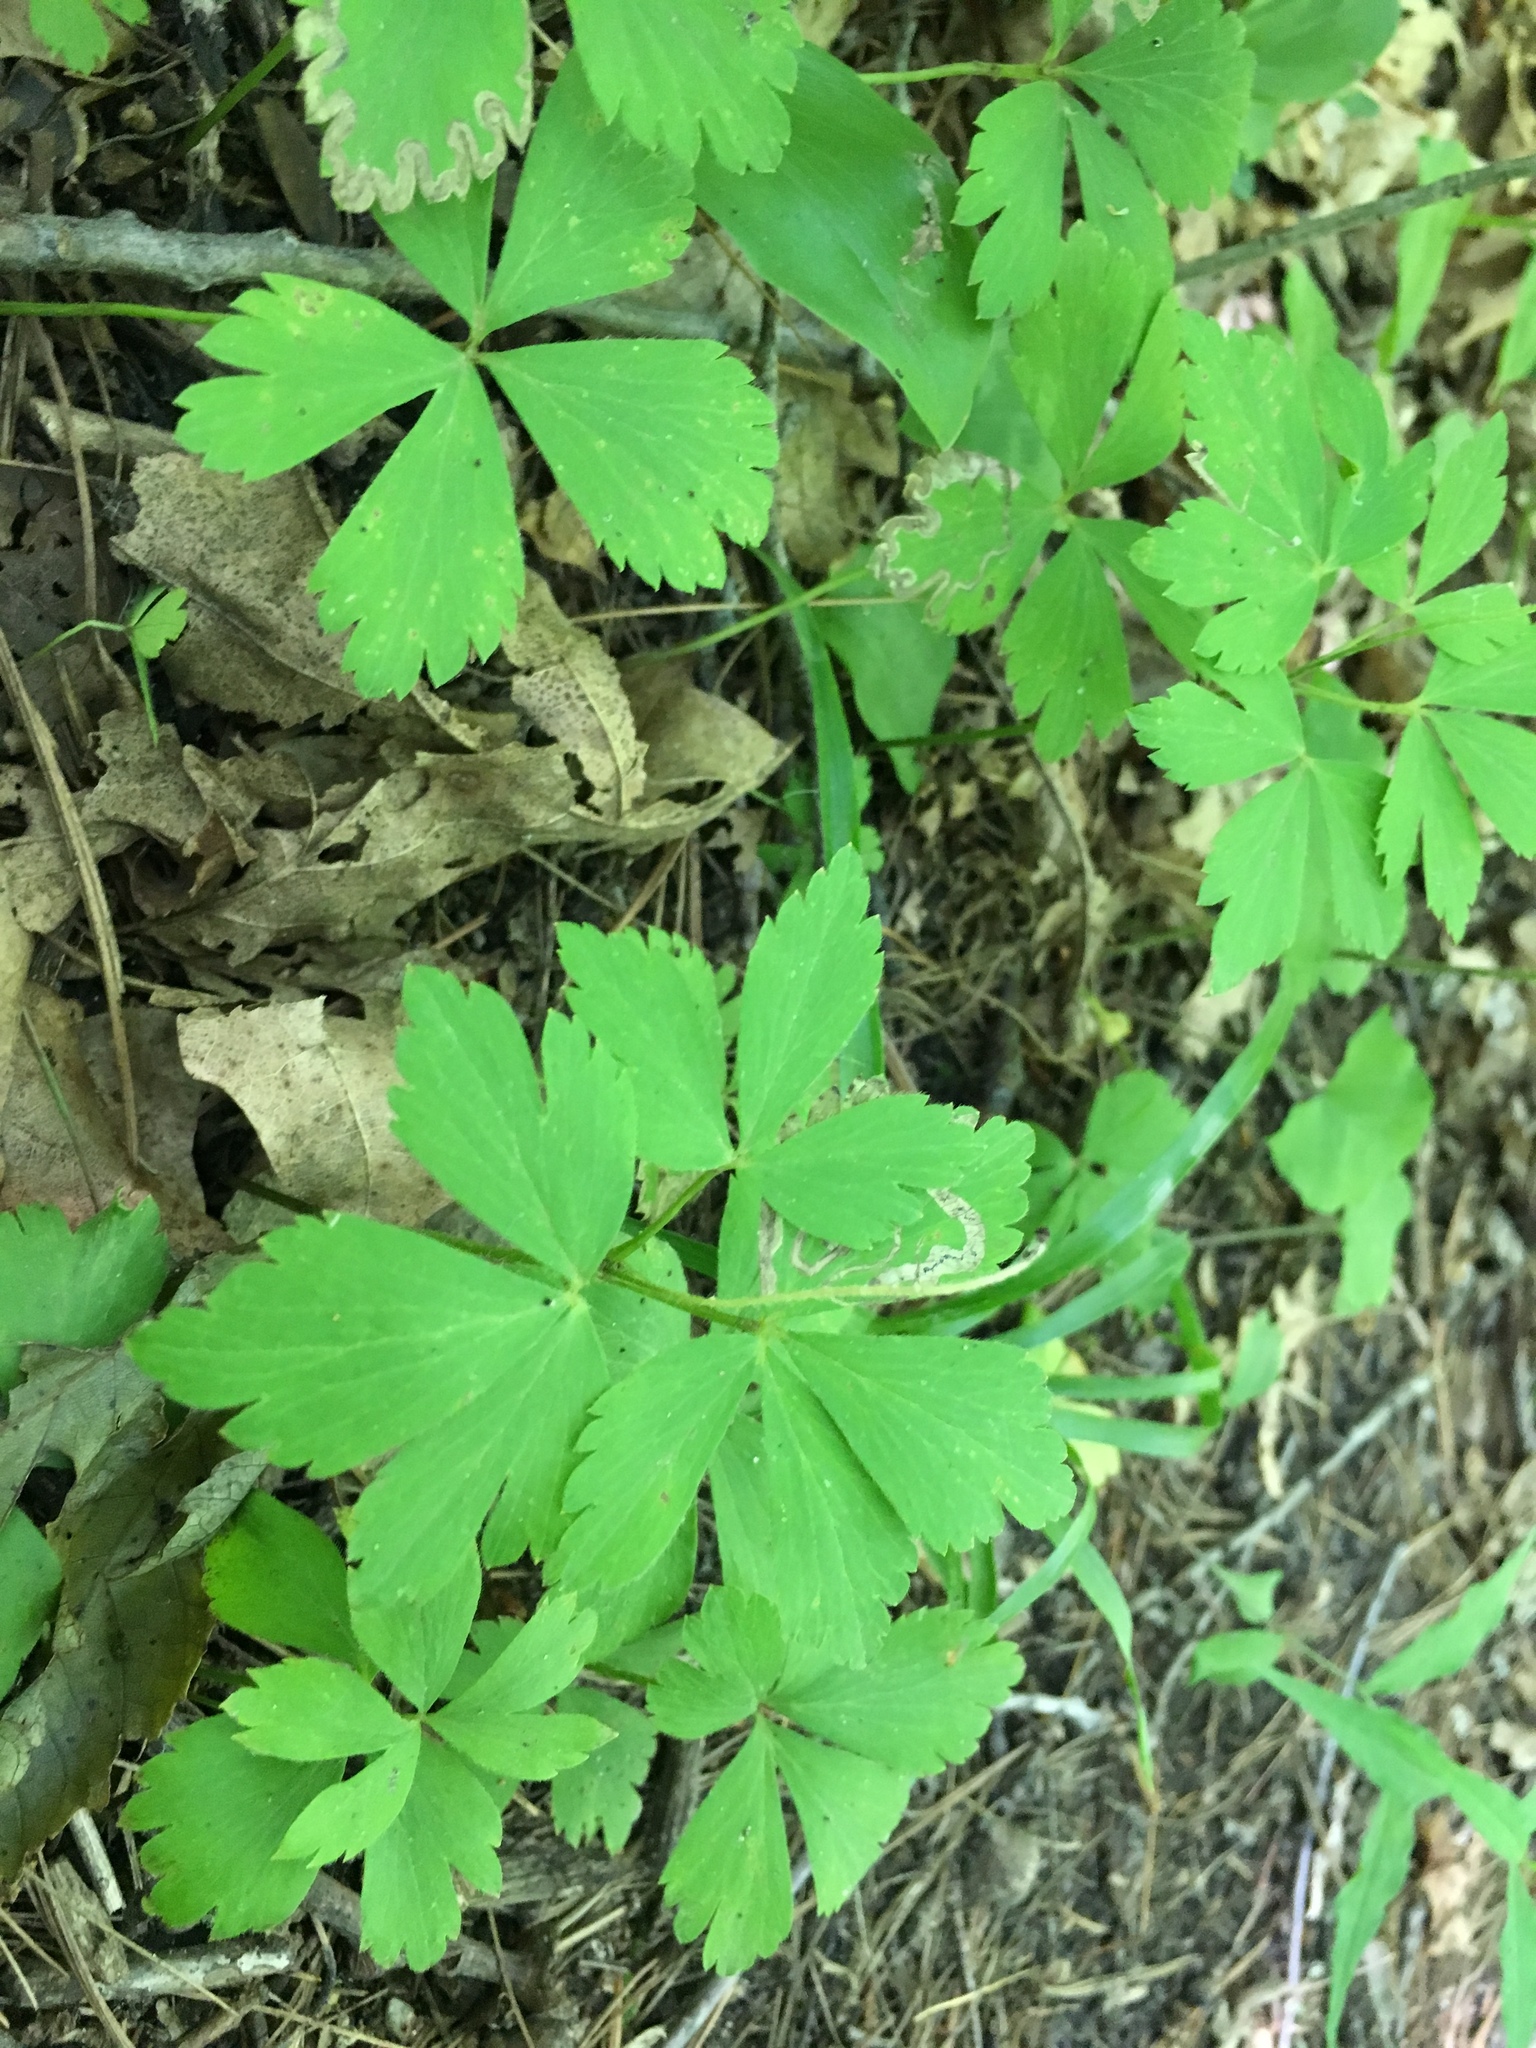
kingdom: Plantae
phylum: Tracheophyta
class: Magnoliopsida
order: Ranunculales
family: Ranunculaceae
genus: Anemone
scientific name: Anemone quinquefolia
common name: Wood anemone
